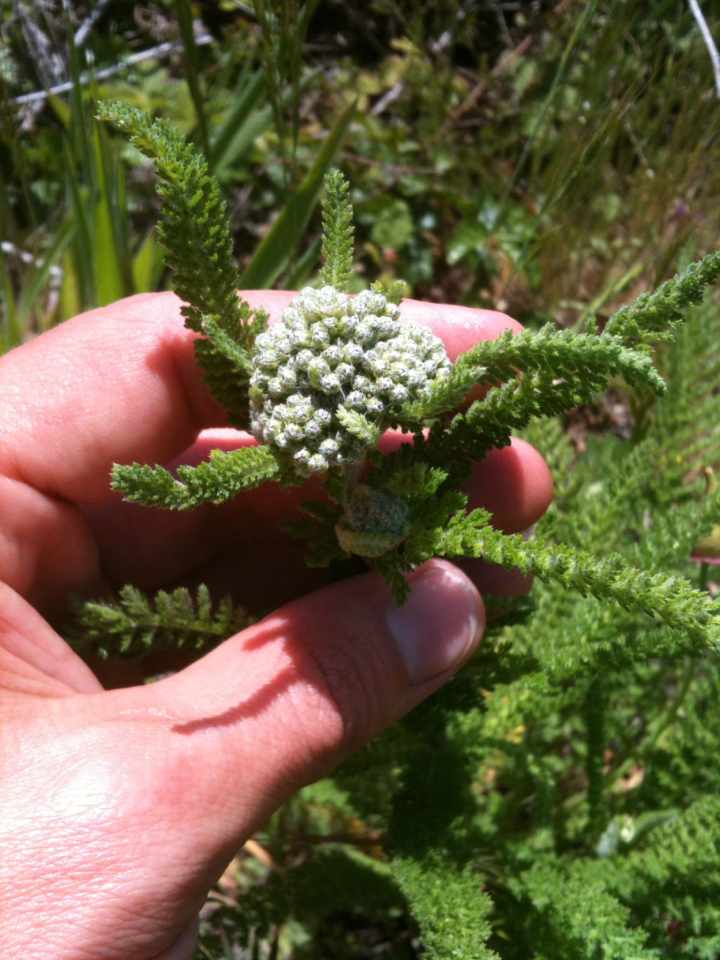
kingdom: Plantae
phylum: Tracheophyta
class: Magnoliopsida
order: Asterales
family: Asteraceae
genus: Achillea
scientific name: Achillea millefolium
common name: Yarrow
